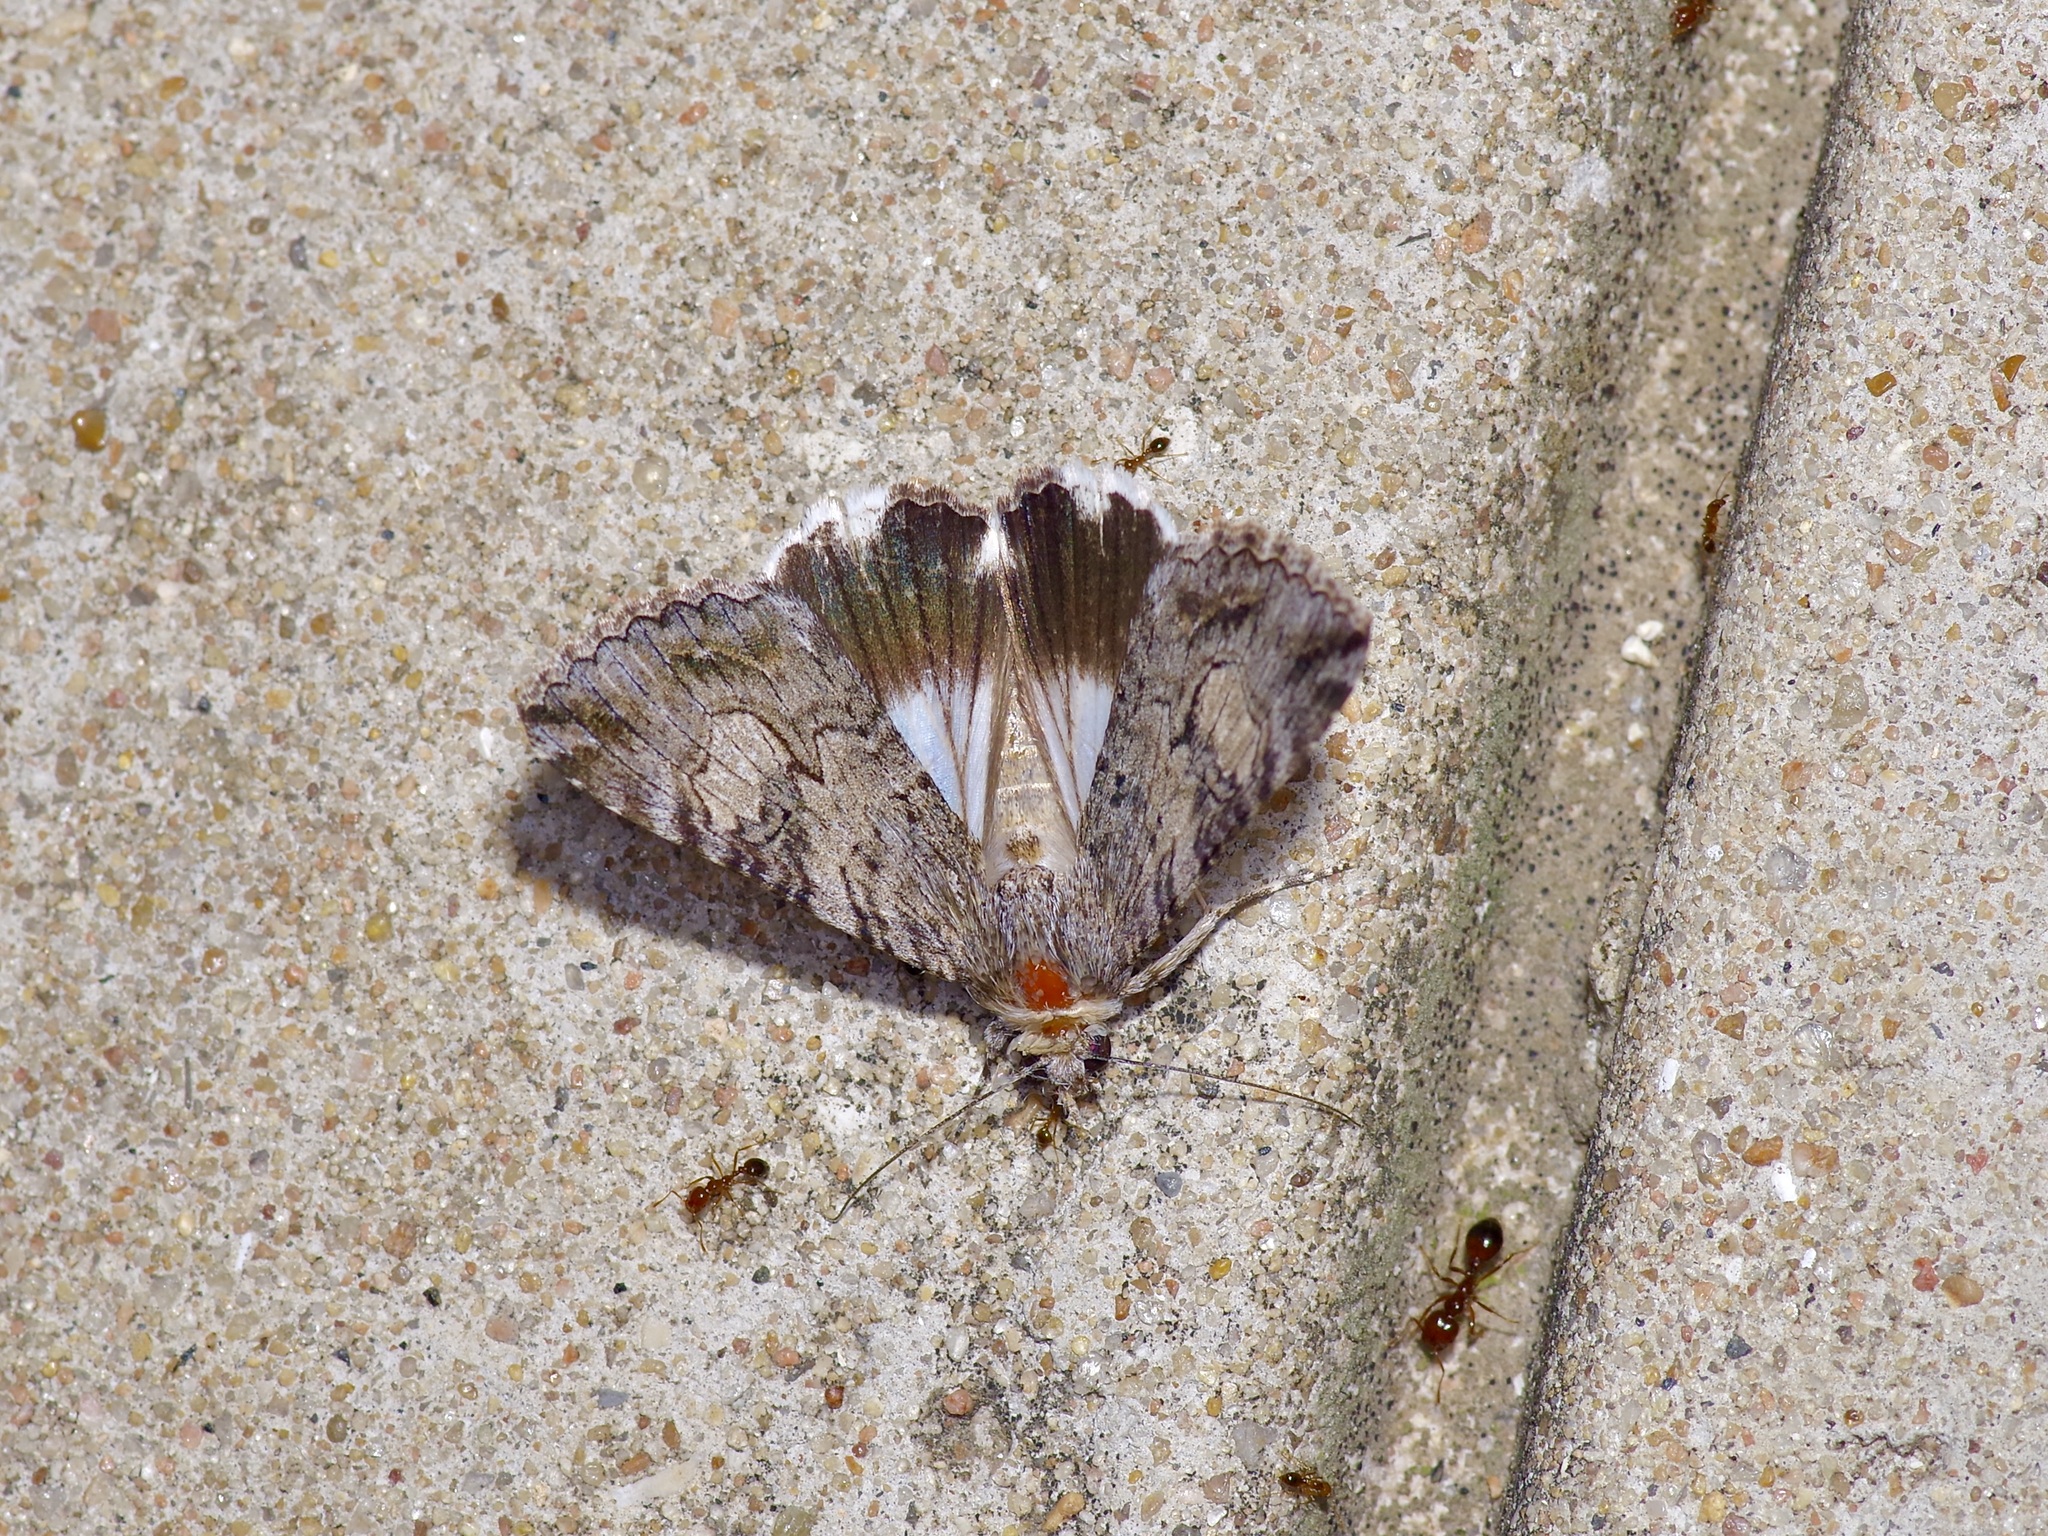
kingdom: Animalia
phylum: Arthropoda
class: Insecta
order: Lepidoptera
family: Erebidae
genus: Melipotis
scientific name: Melipotis jucunda
